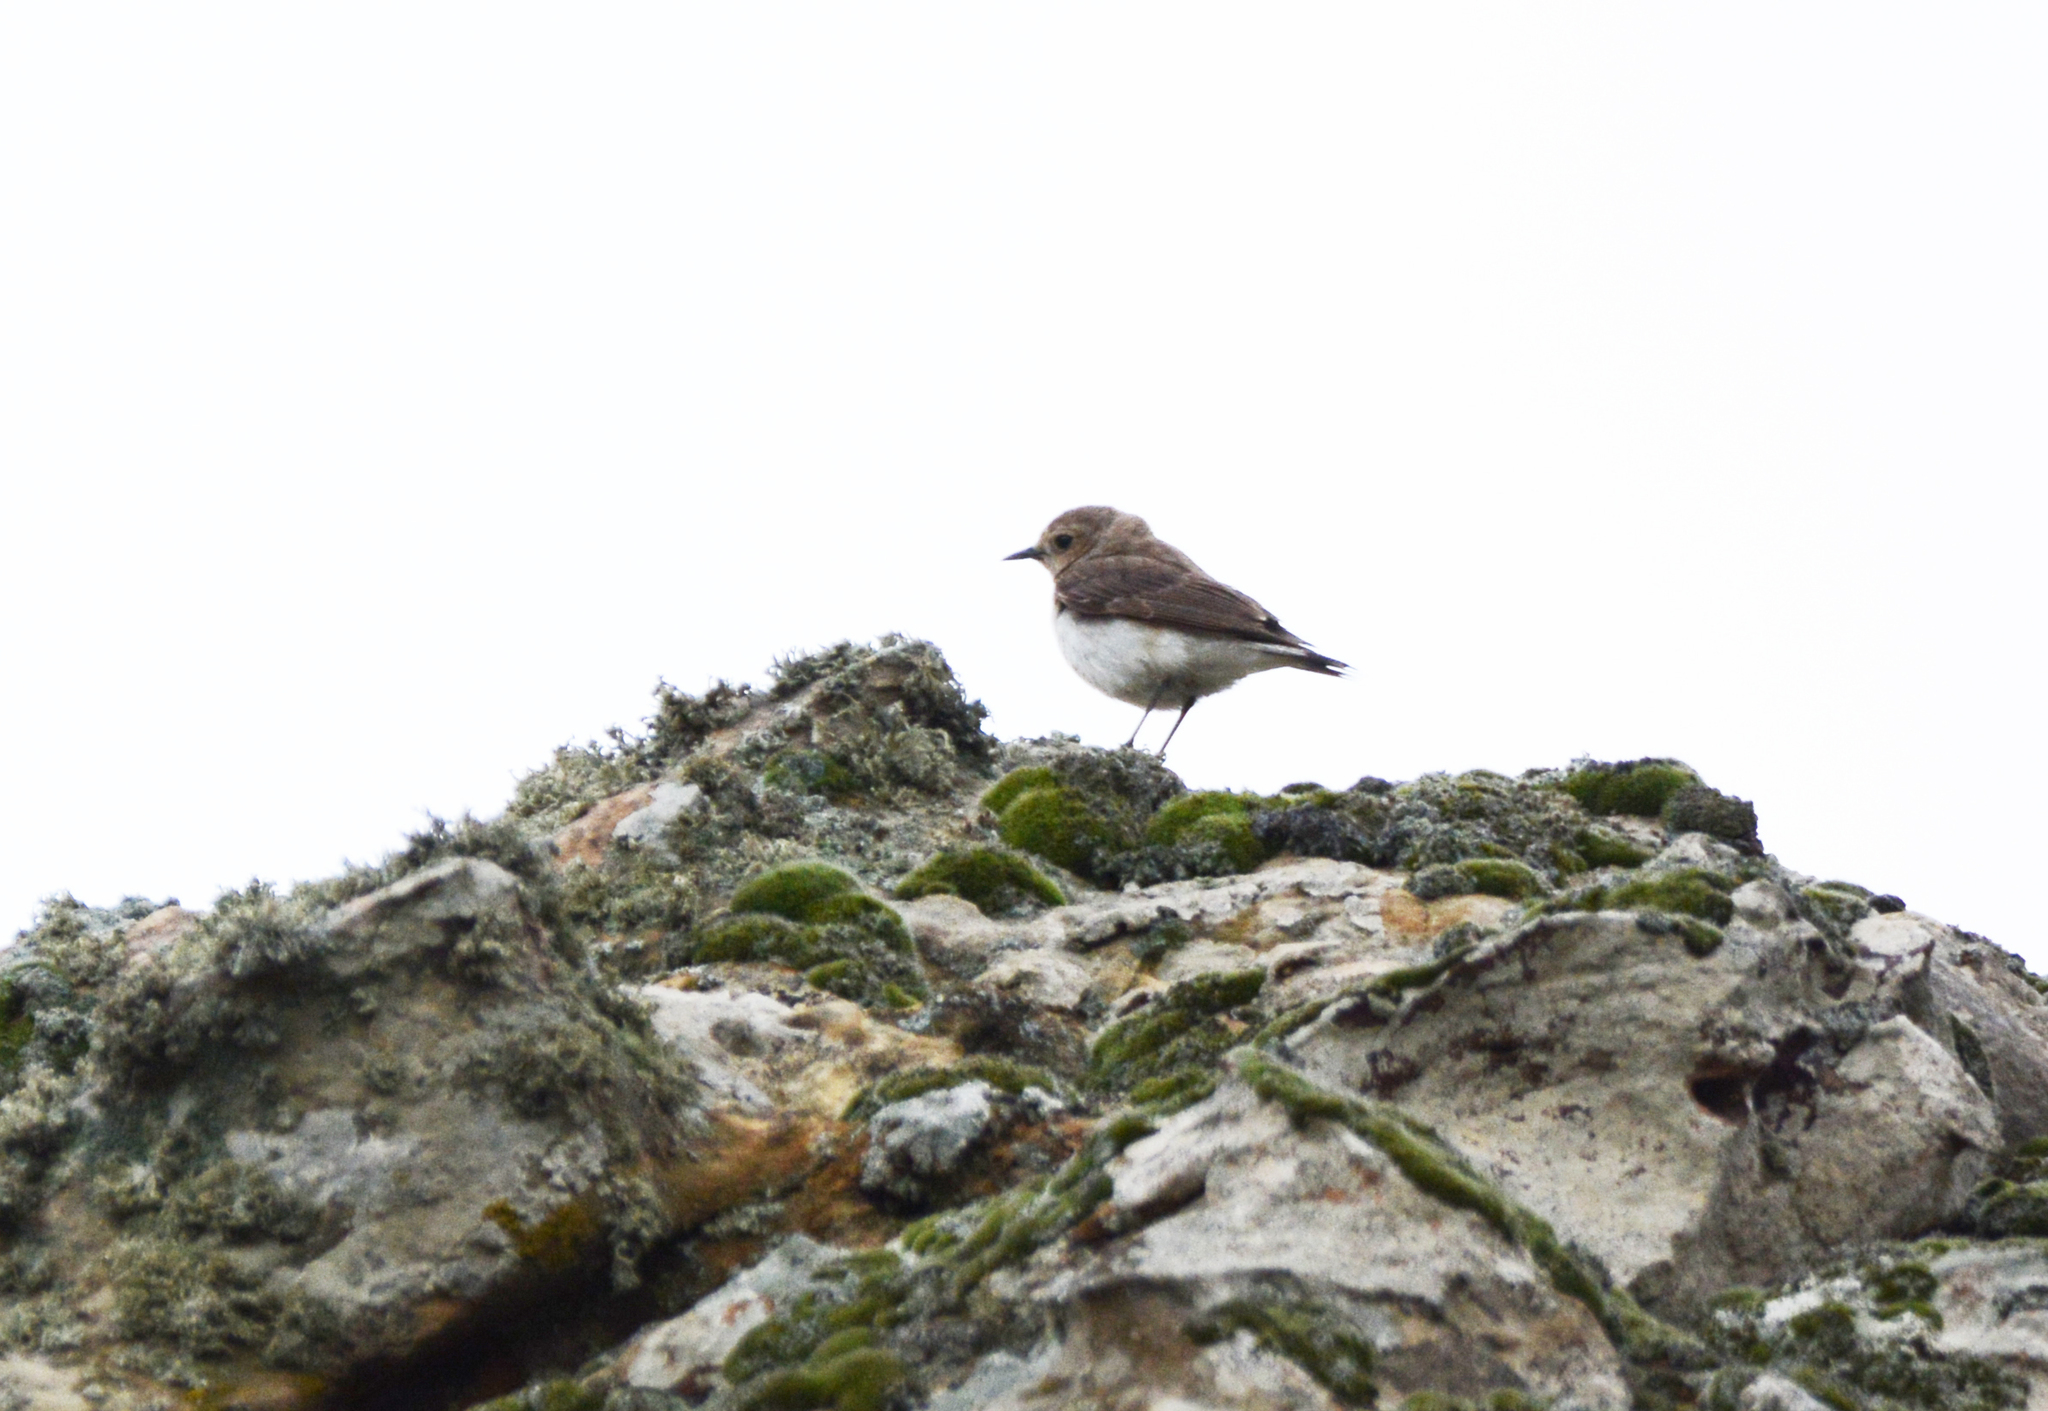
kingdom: Animalia
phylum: Chordata
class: Aves
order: Passeriformes
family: Muscicapidae
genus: Oenanthe
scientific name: Oenanthe pleschanka
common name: Pied wheatear
